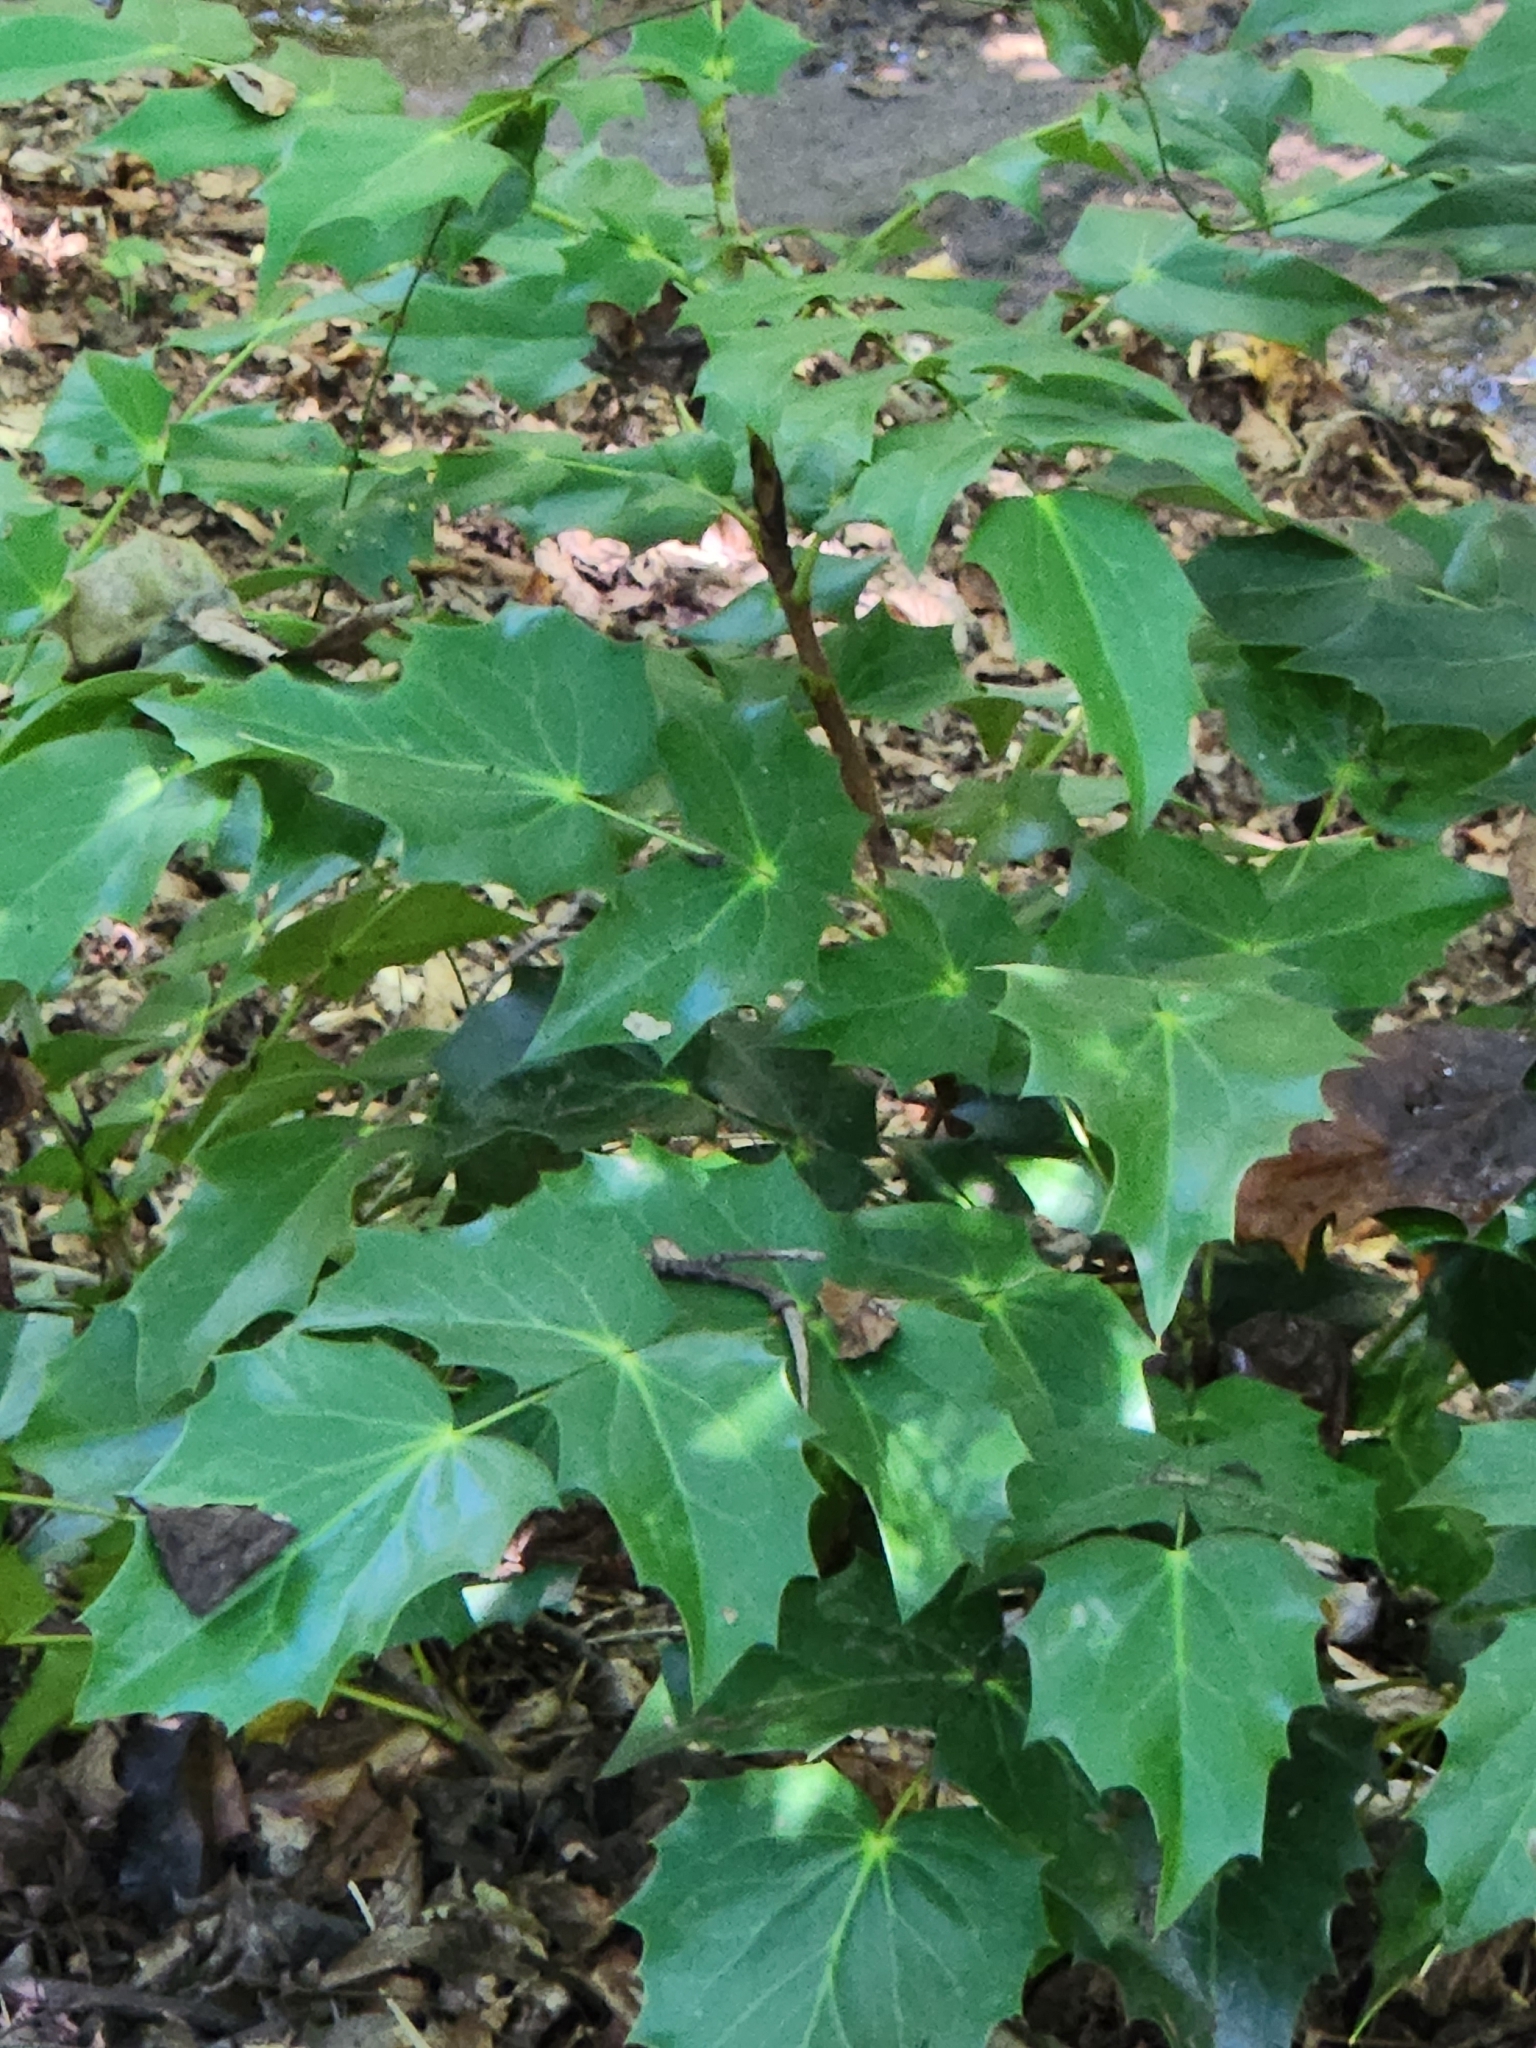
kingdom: Plantae
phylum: Tracheophyta
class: Magnoliopsida
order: Ranunculales
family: Berberidaceae
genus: Mahonia
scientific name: Mahonia bealei
